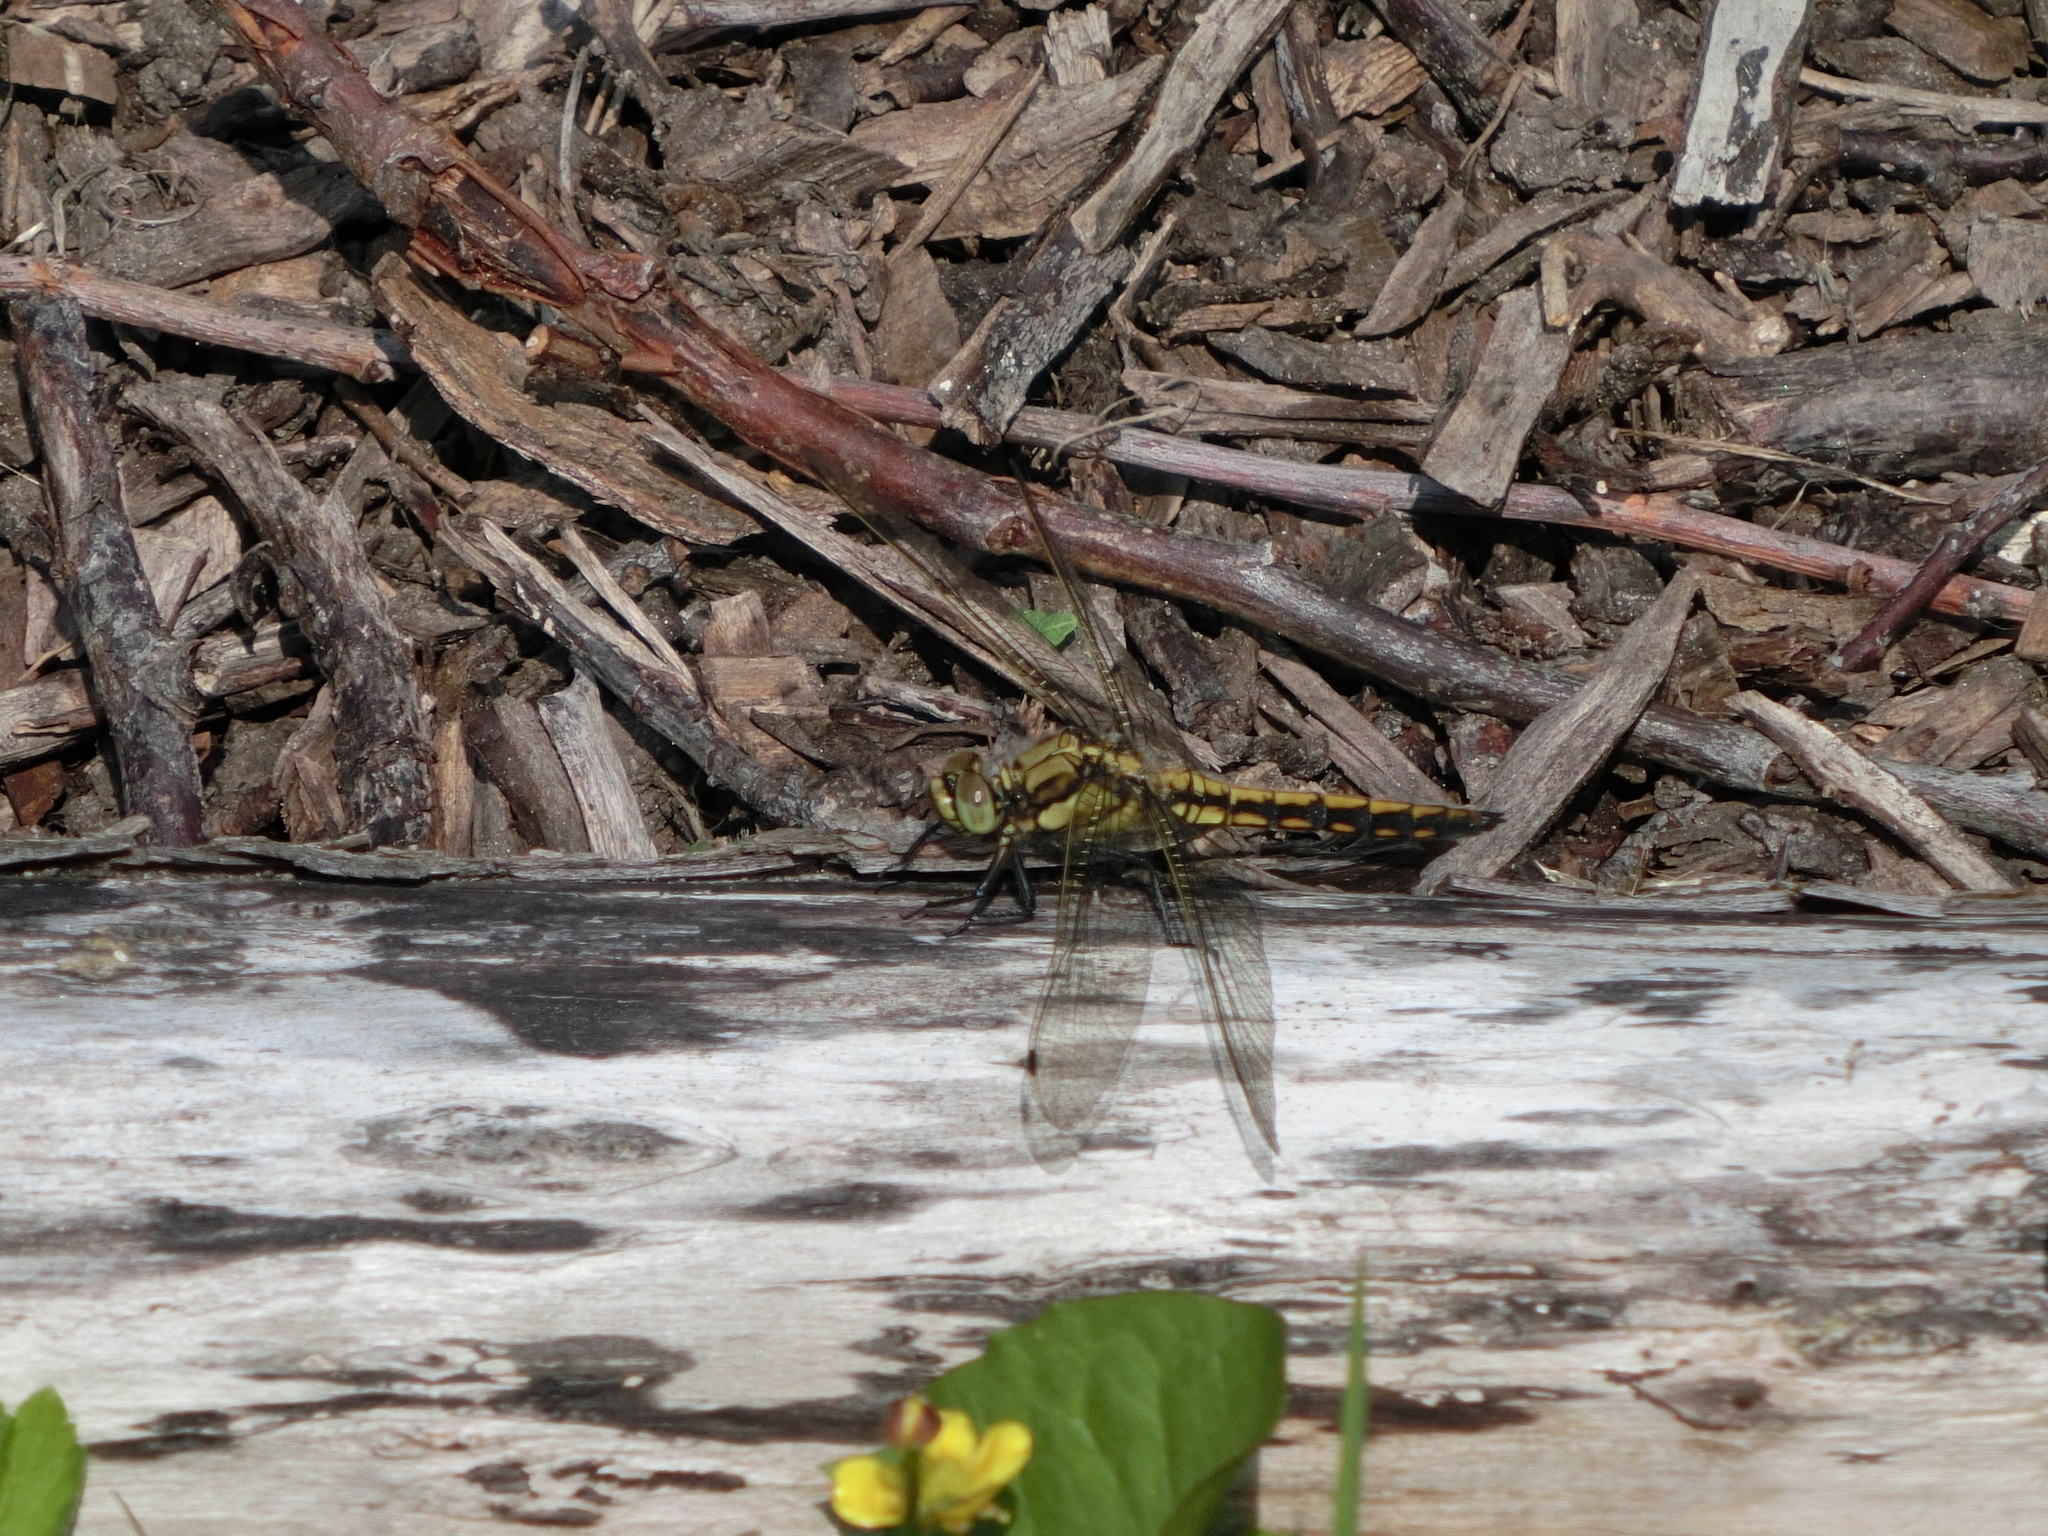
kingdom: Animalia
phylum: Arthropoda
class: Insecta
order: Odonata
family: Libellulidae
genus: Orthetrum
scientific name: Orthetrum cancellatum
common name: Black-tailed skimmer
